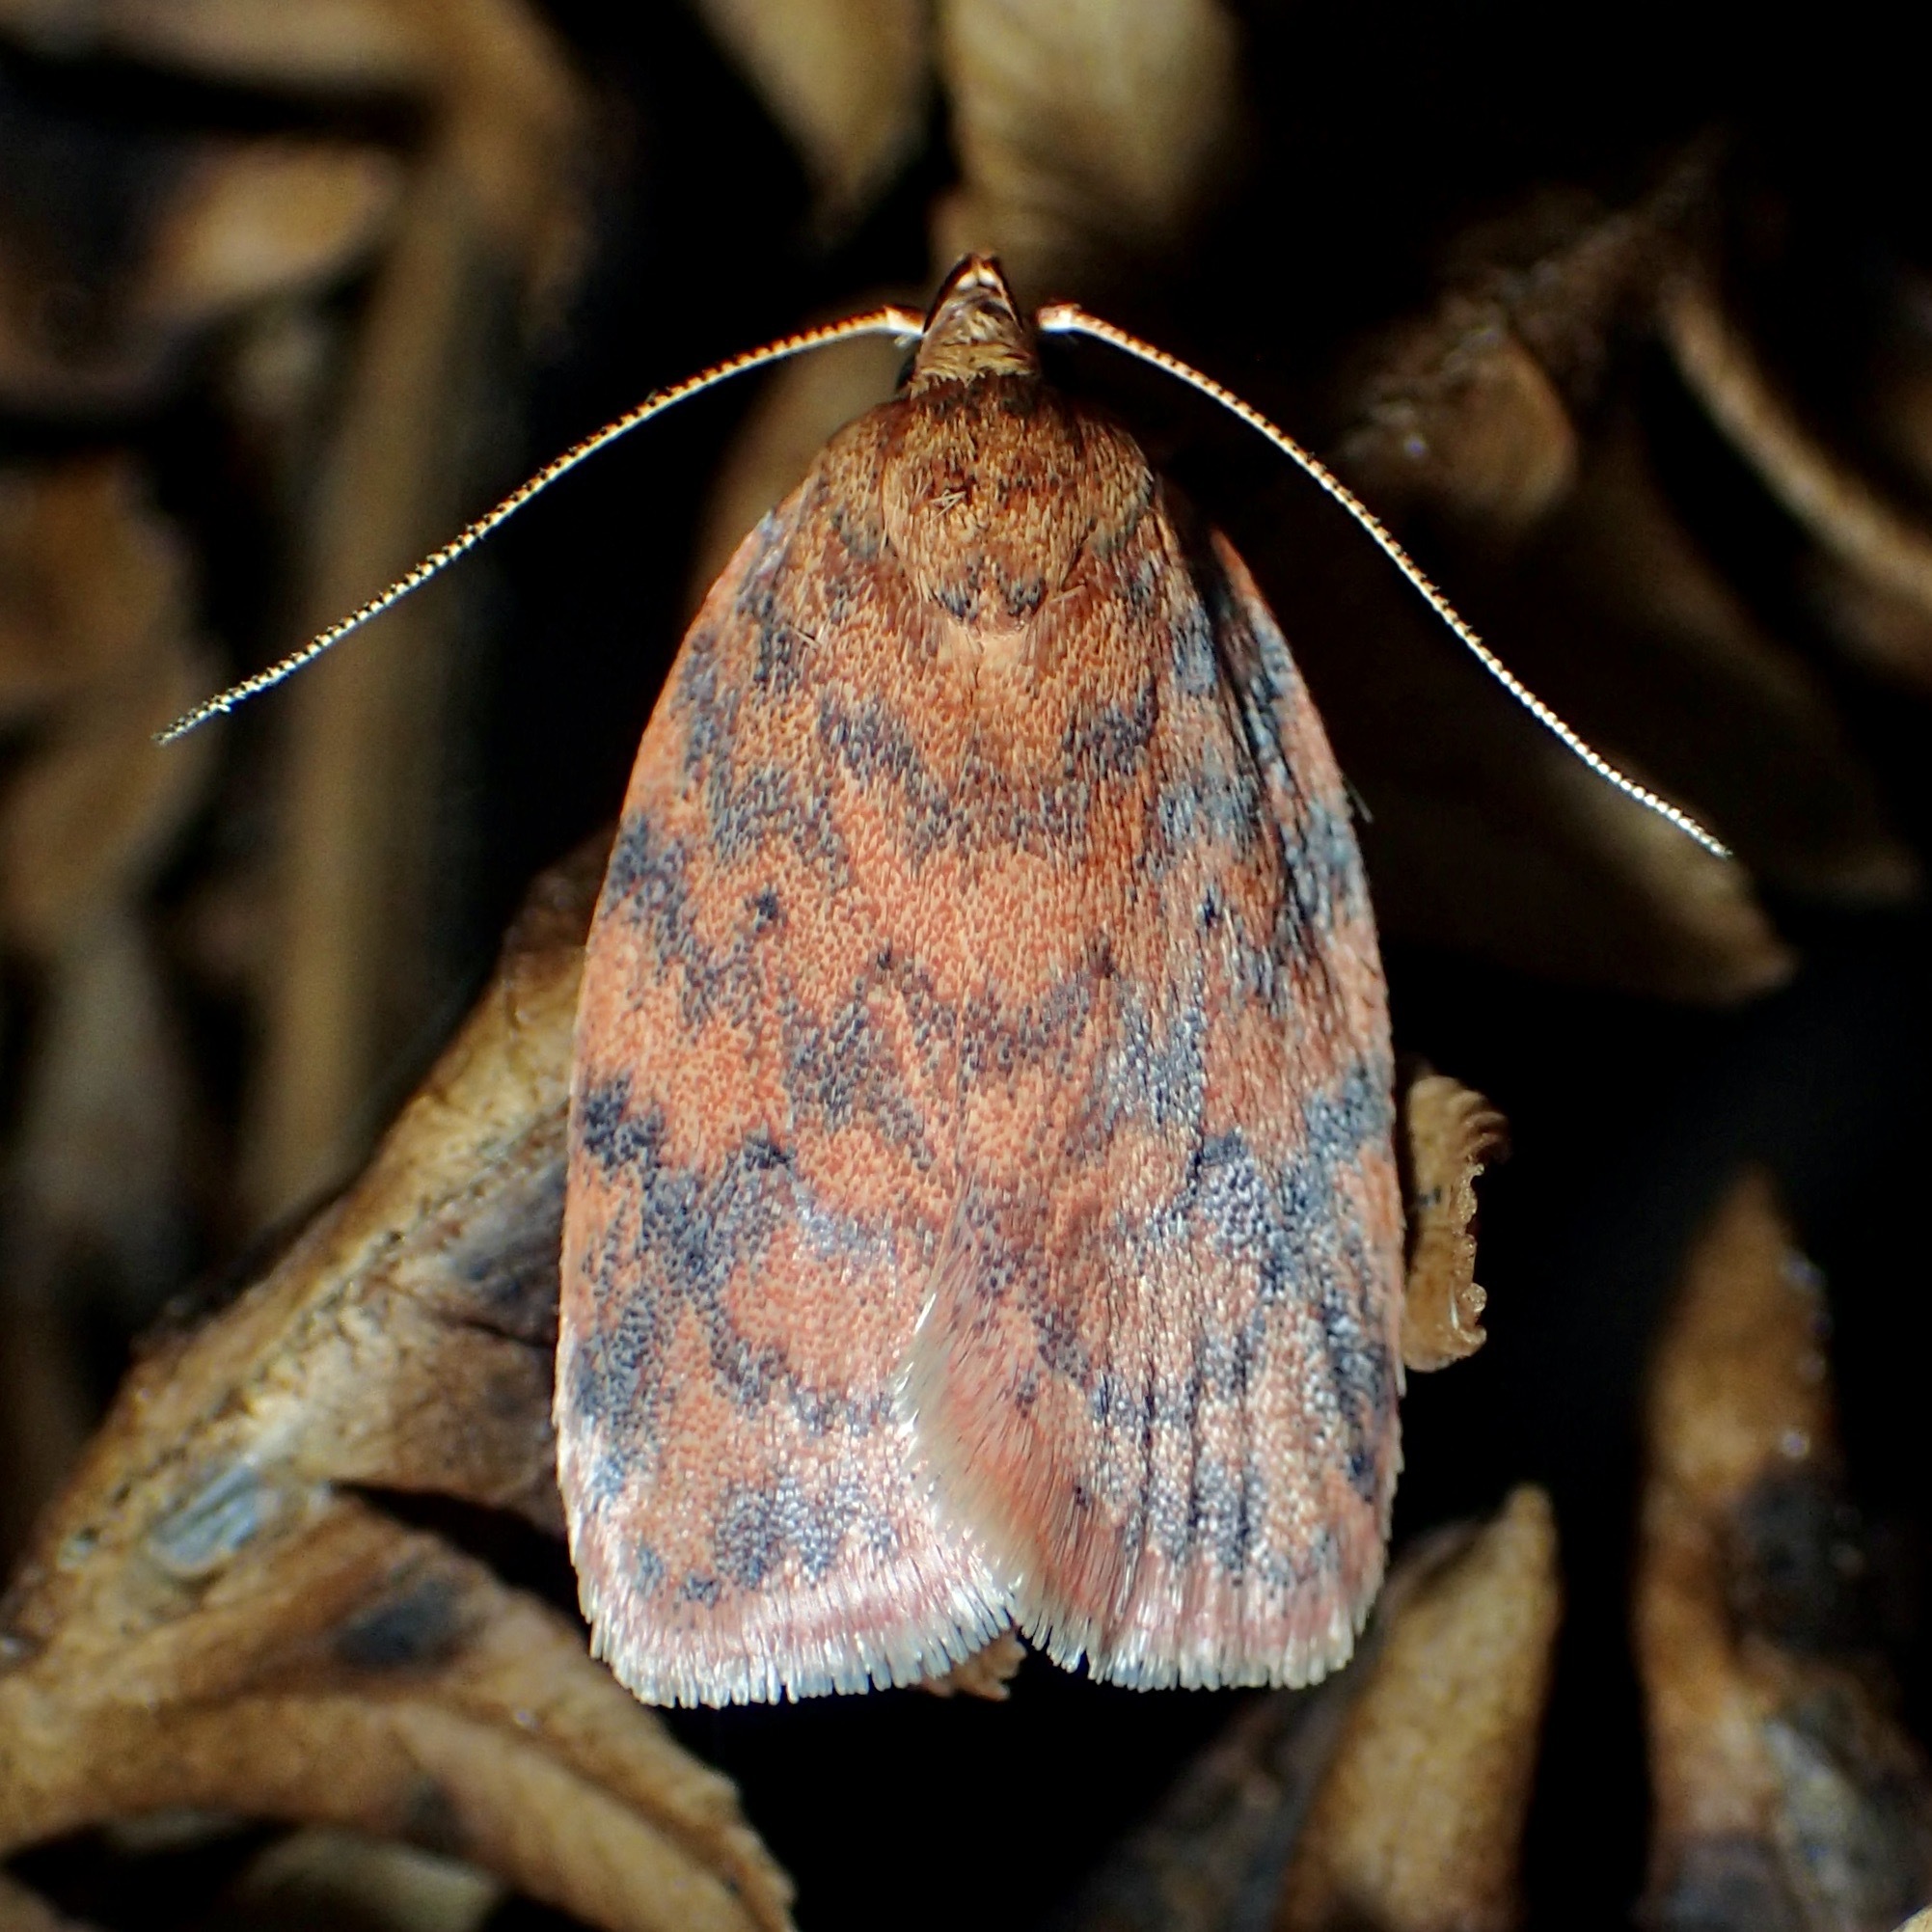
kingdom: Animalia
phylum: Arthropoda
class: Insecta
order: Lepidoptera
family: Oecophoridae
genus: Garrha
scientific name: Garrha costimacula
